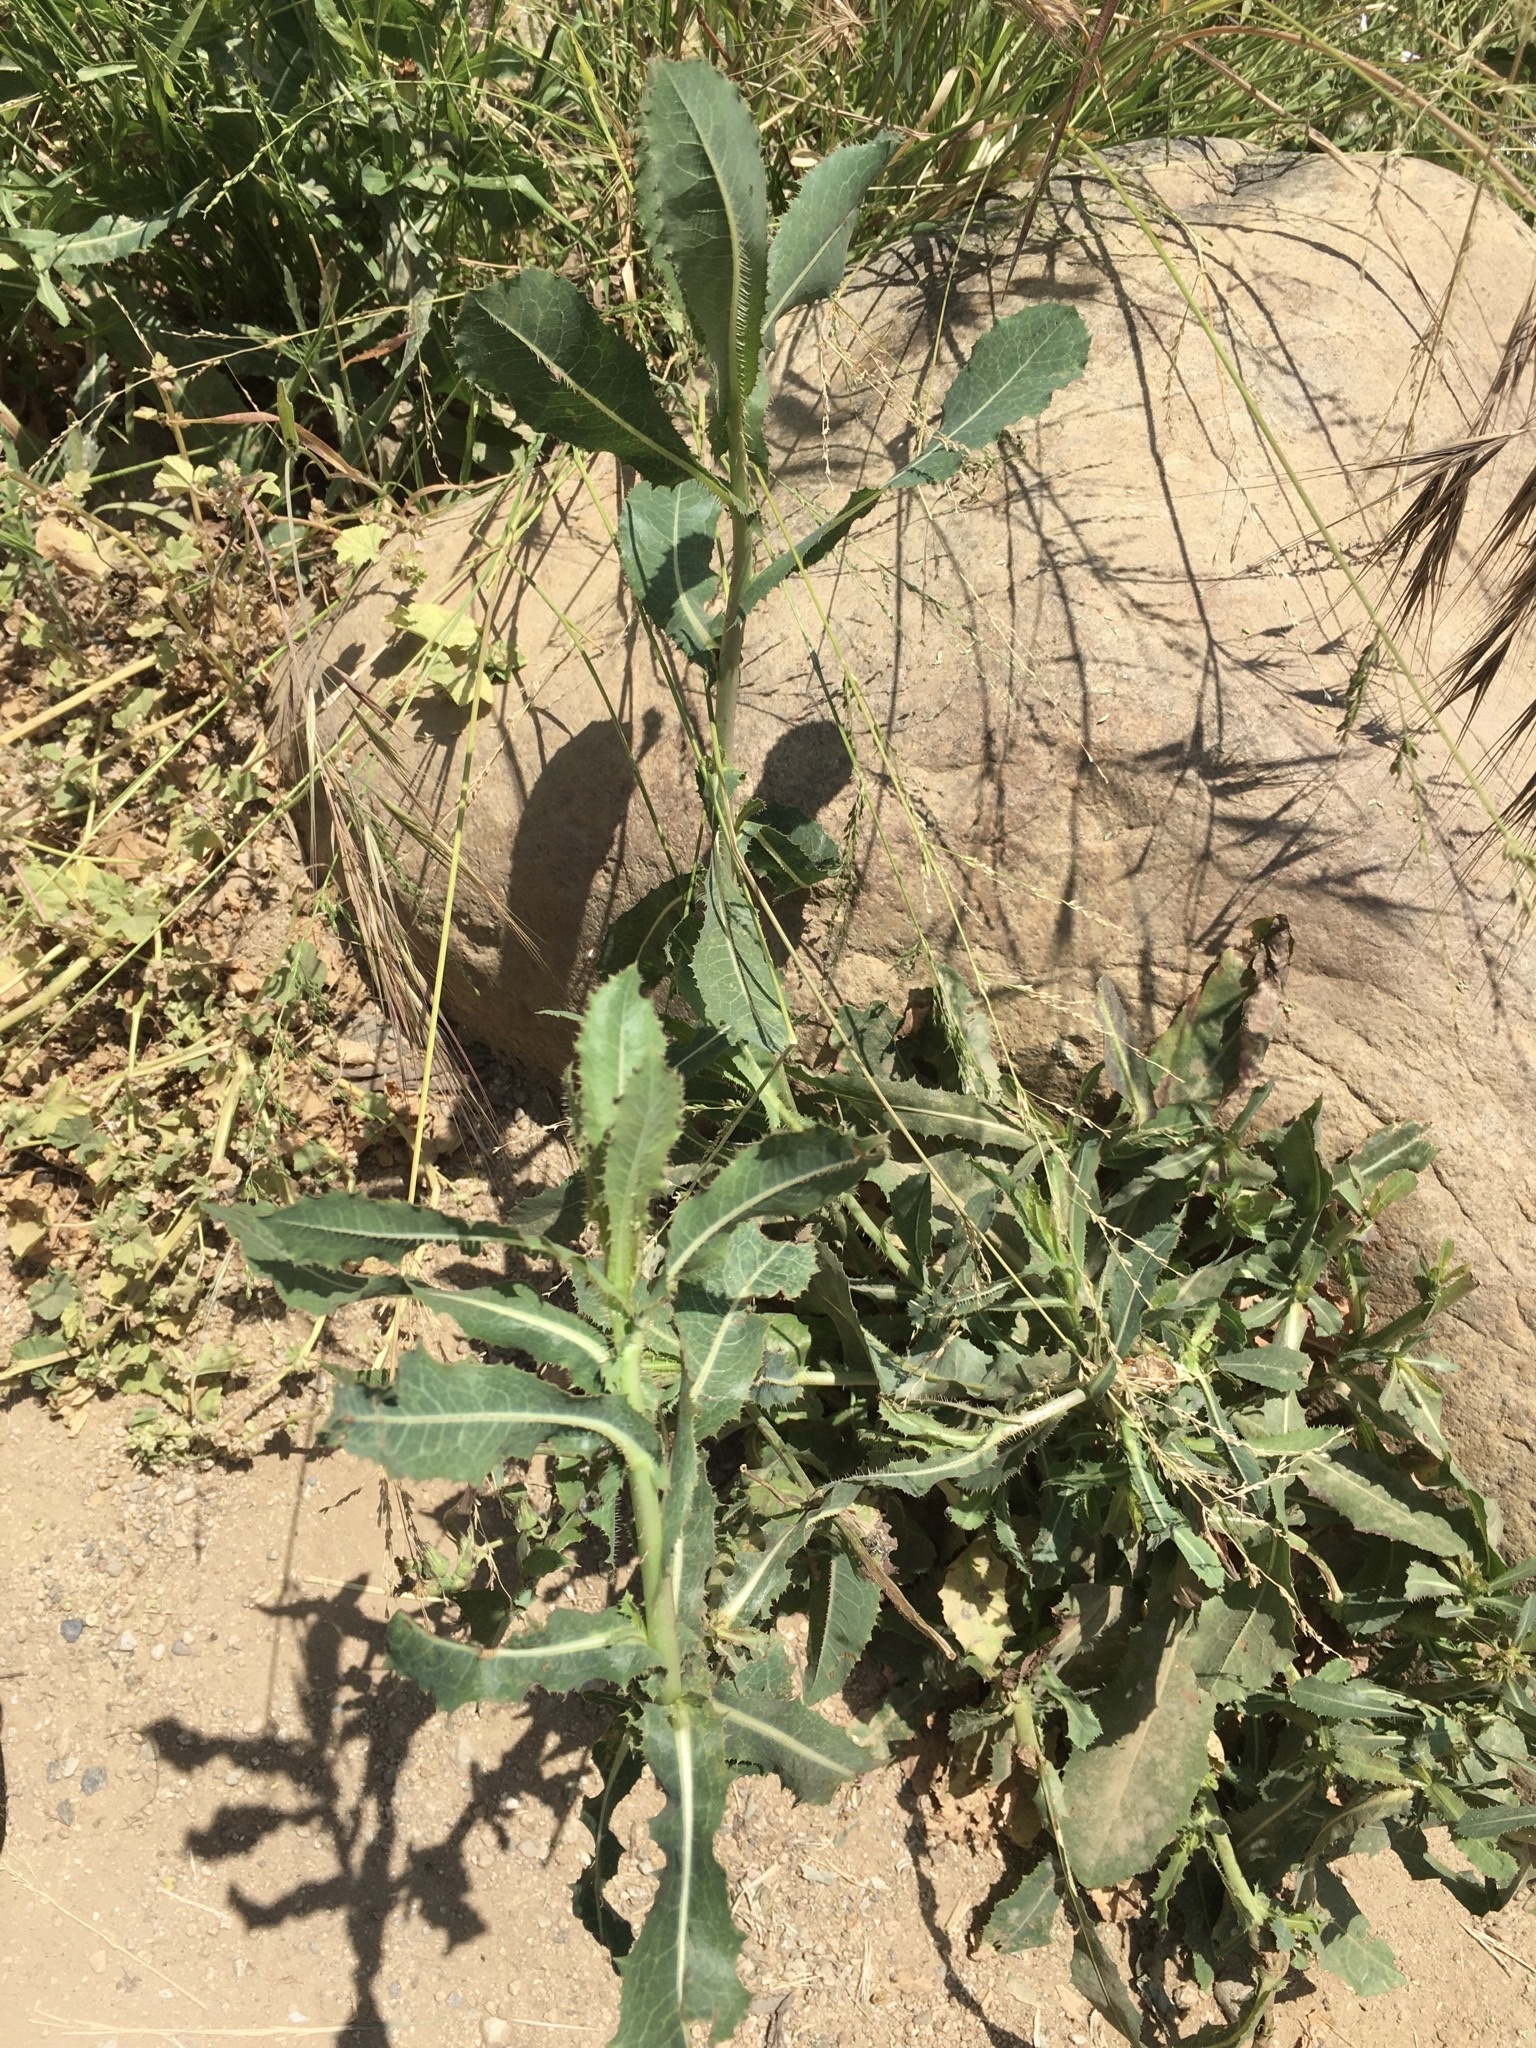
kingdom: Plantae
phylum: Tracheophyta
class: Magnoliopsida
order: Asterales
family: Asteraceae
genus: Lactuca
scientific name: Lactuca serriola
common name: Prickly lettuce
